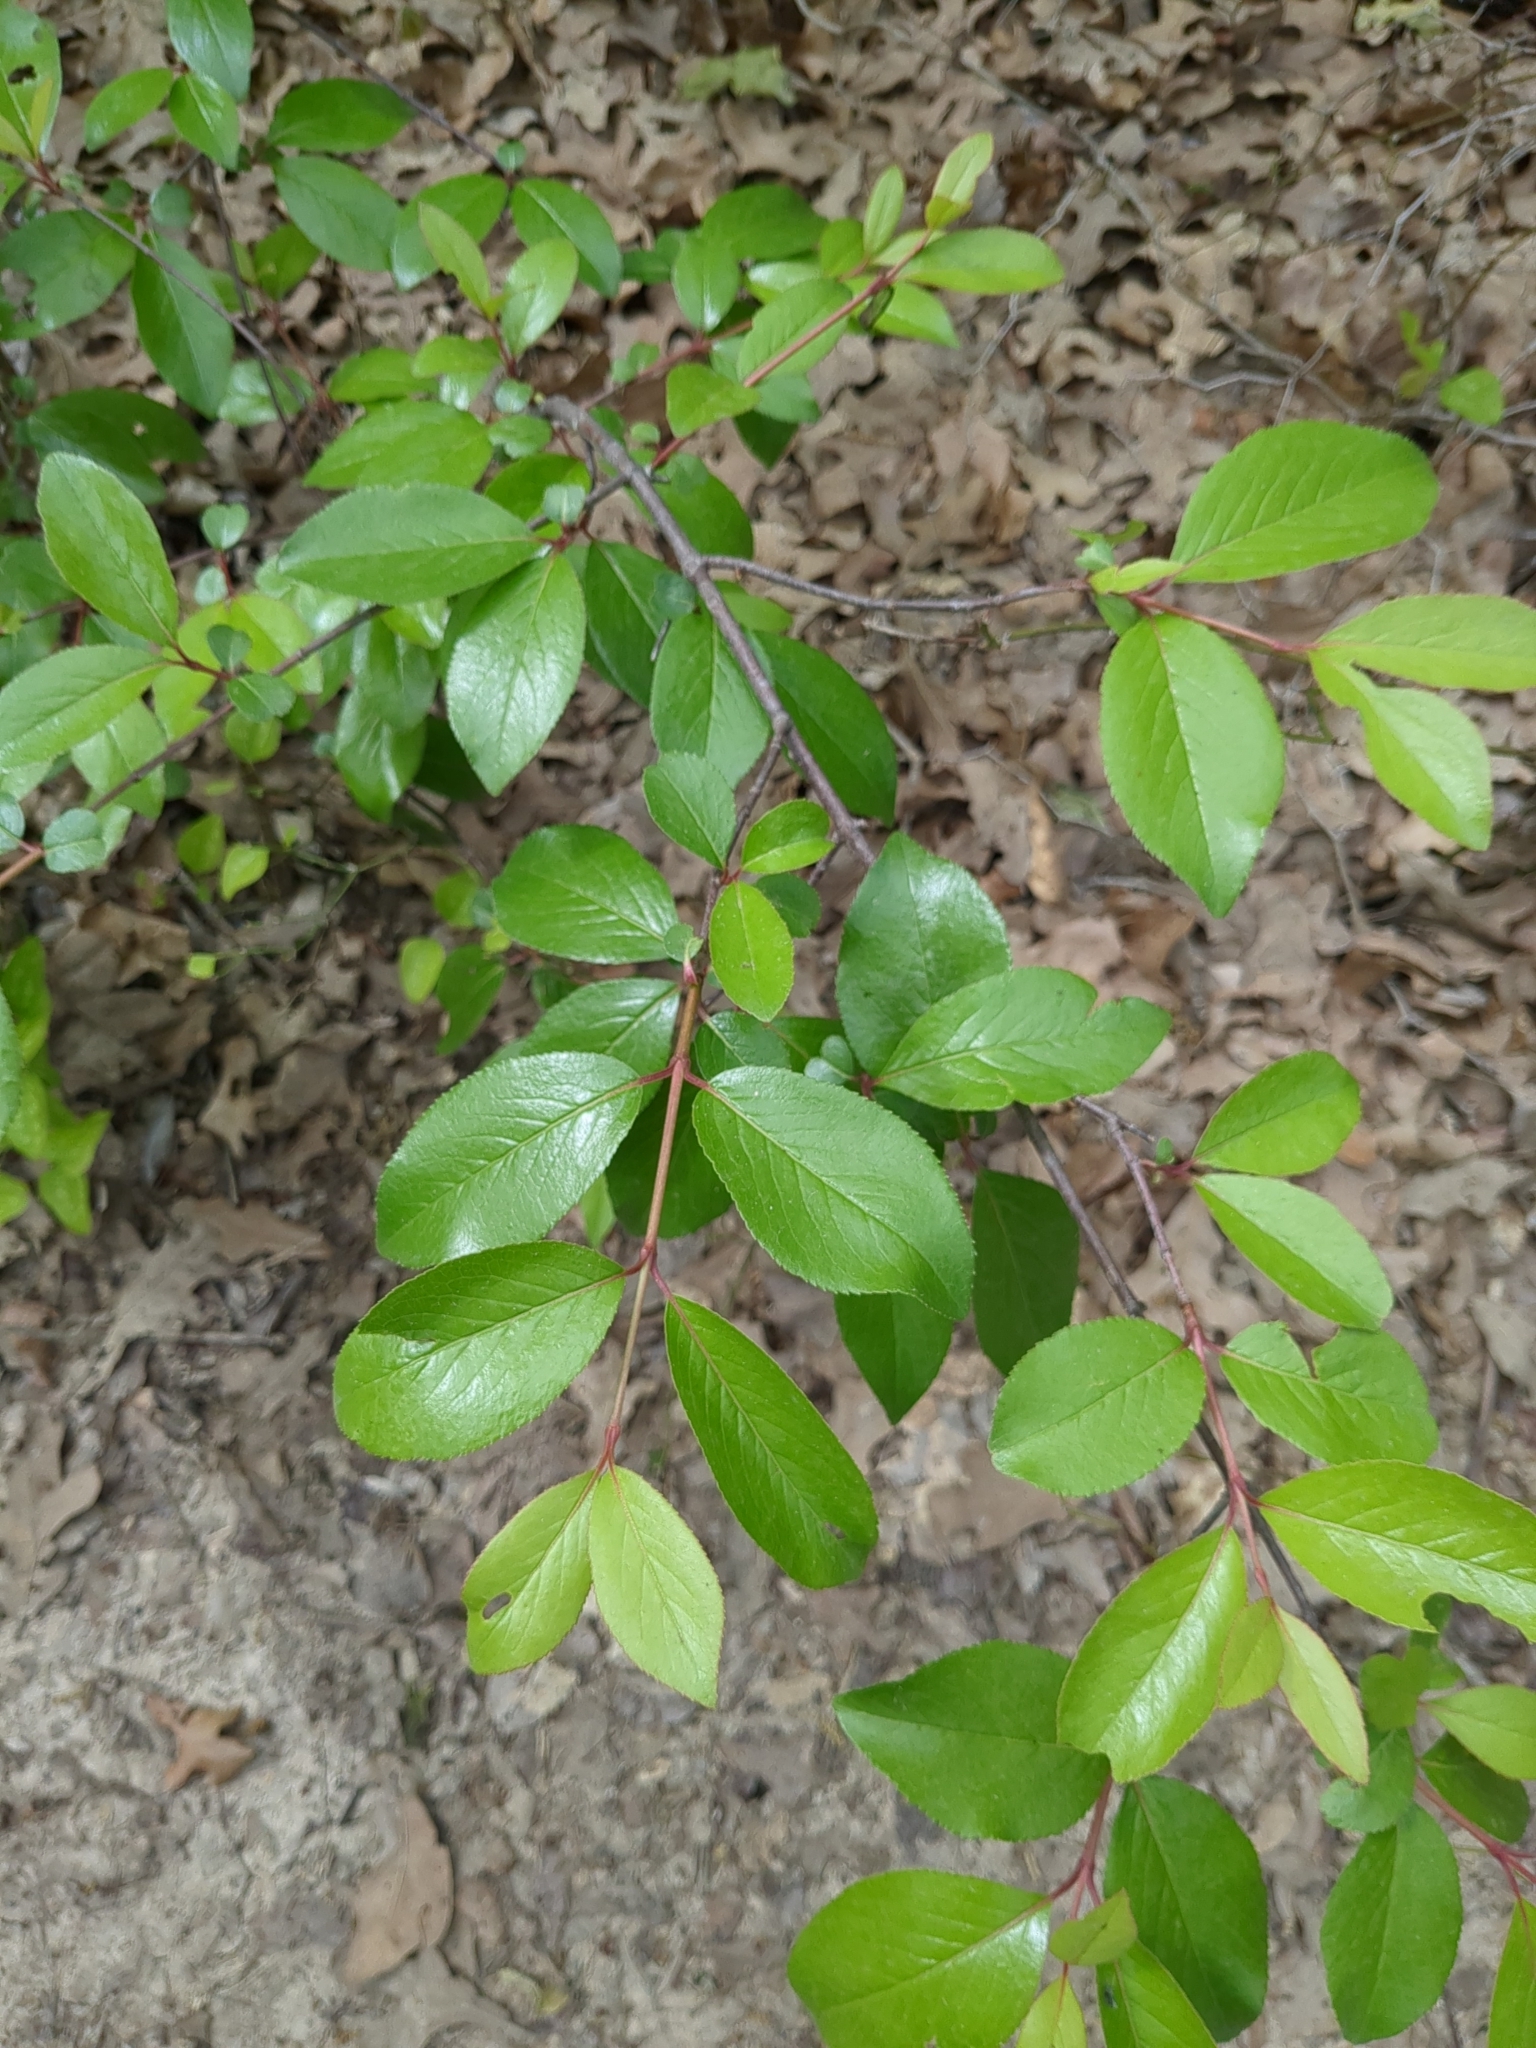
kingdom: Plantae
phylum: Tracheophyta
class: Magnoliopsida
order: Dipsacales
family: Viburnaceae
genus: Viburnum
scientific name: Viburnum rufidulum
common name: Blue haw
